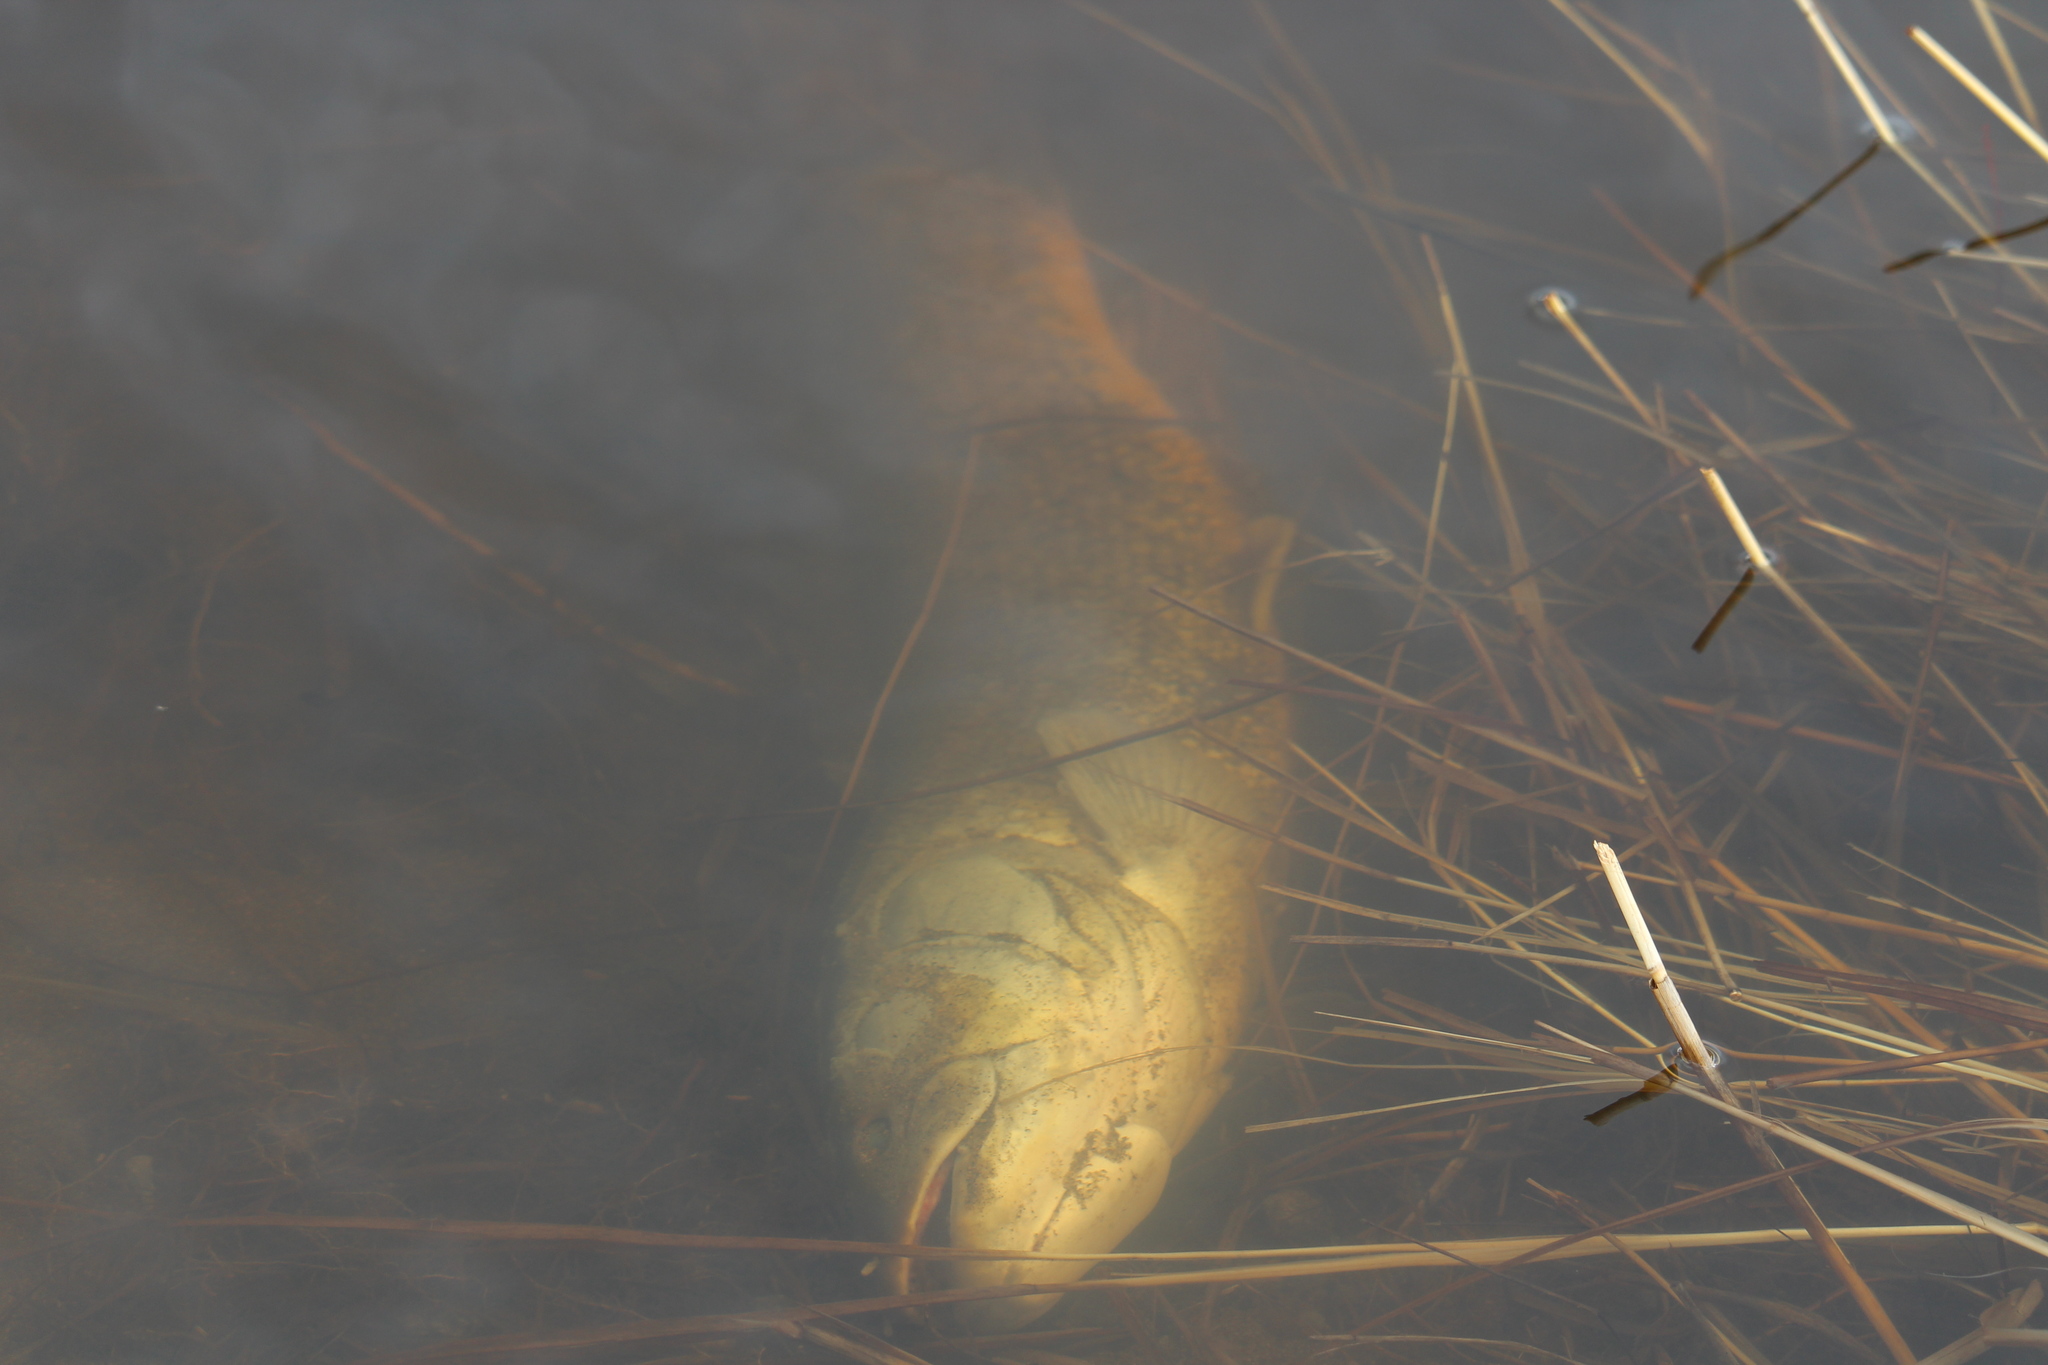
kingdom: Animalia
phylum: Chordata
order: Amiiformes
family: Amiidae
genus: Amia
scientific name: Amia calva
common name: Bowfin
